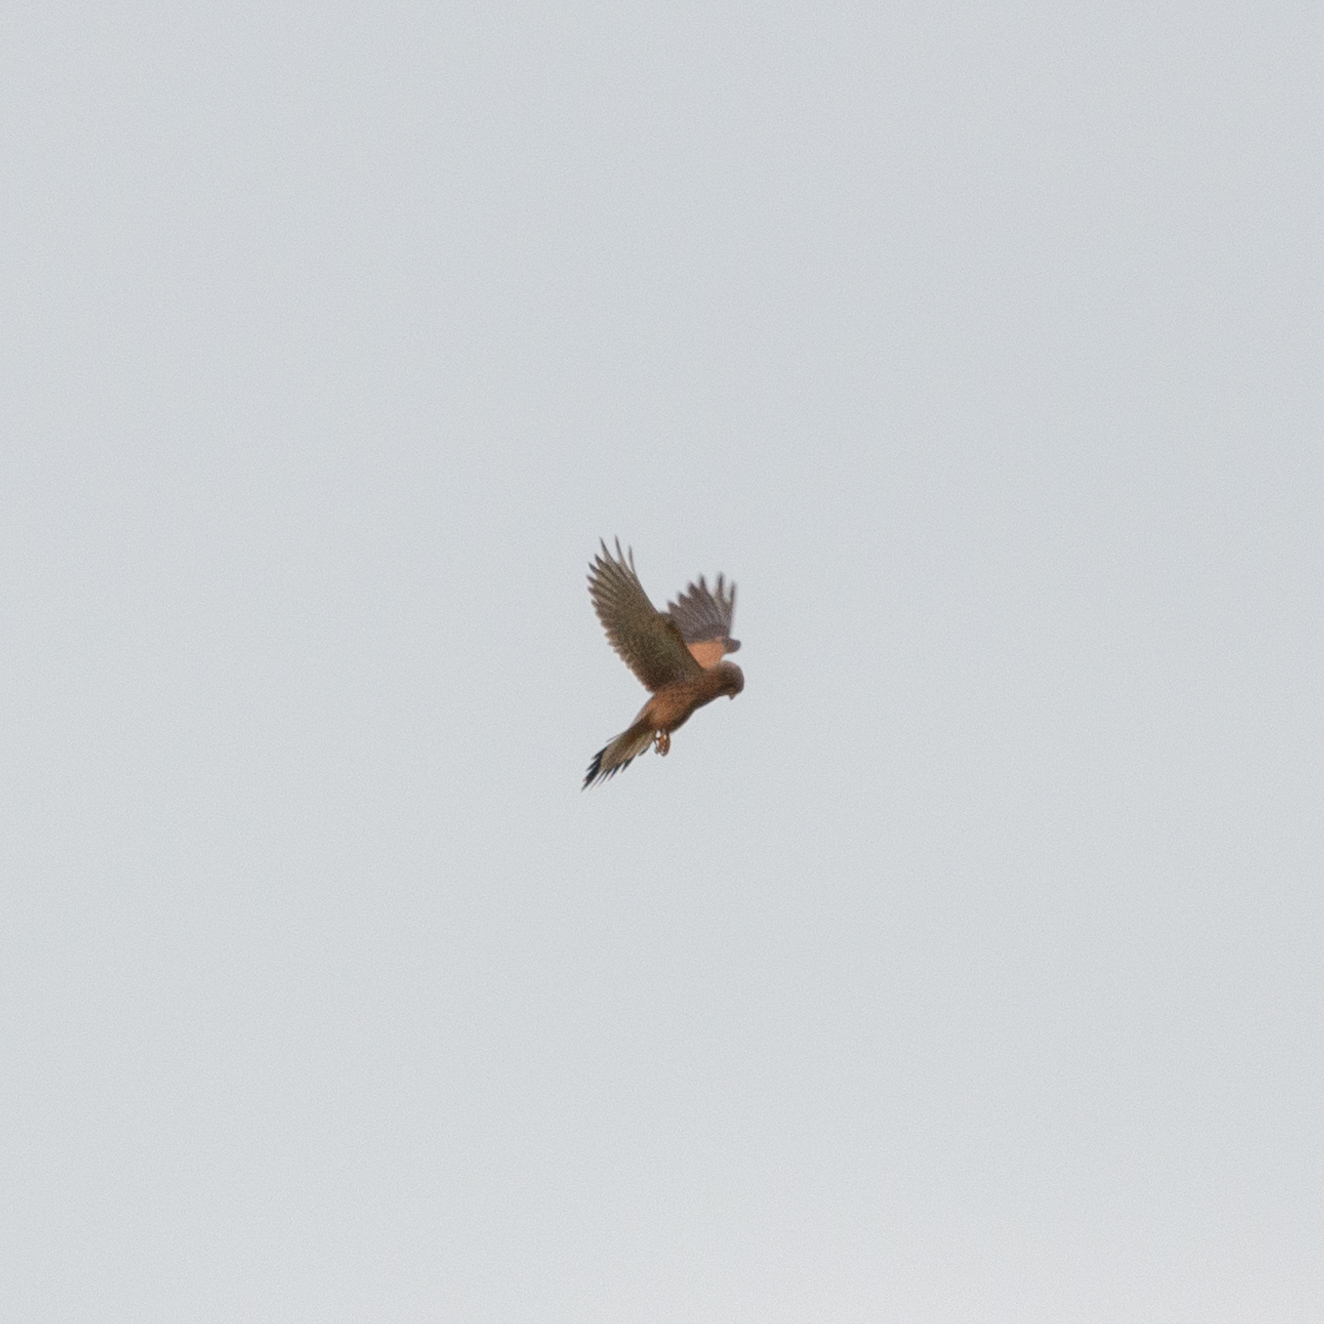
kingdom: Animalia
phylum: Chordata
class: Aves
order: Falconiformes
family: Falconidae
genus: Falco
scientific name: Falco tinnunculus
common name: Common kestrel
